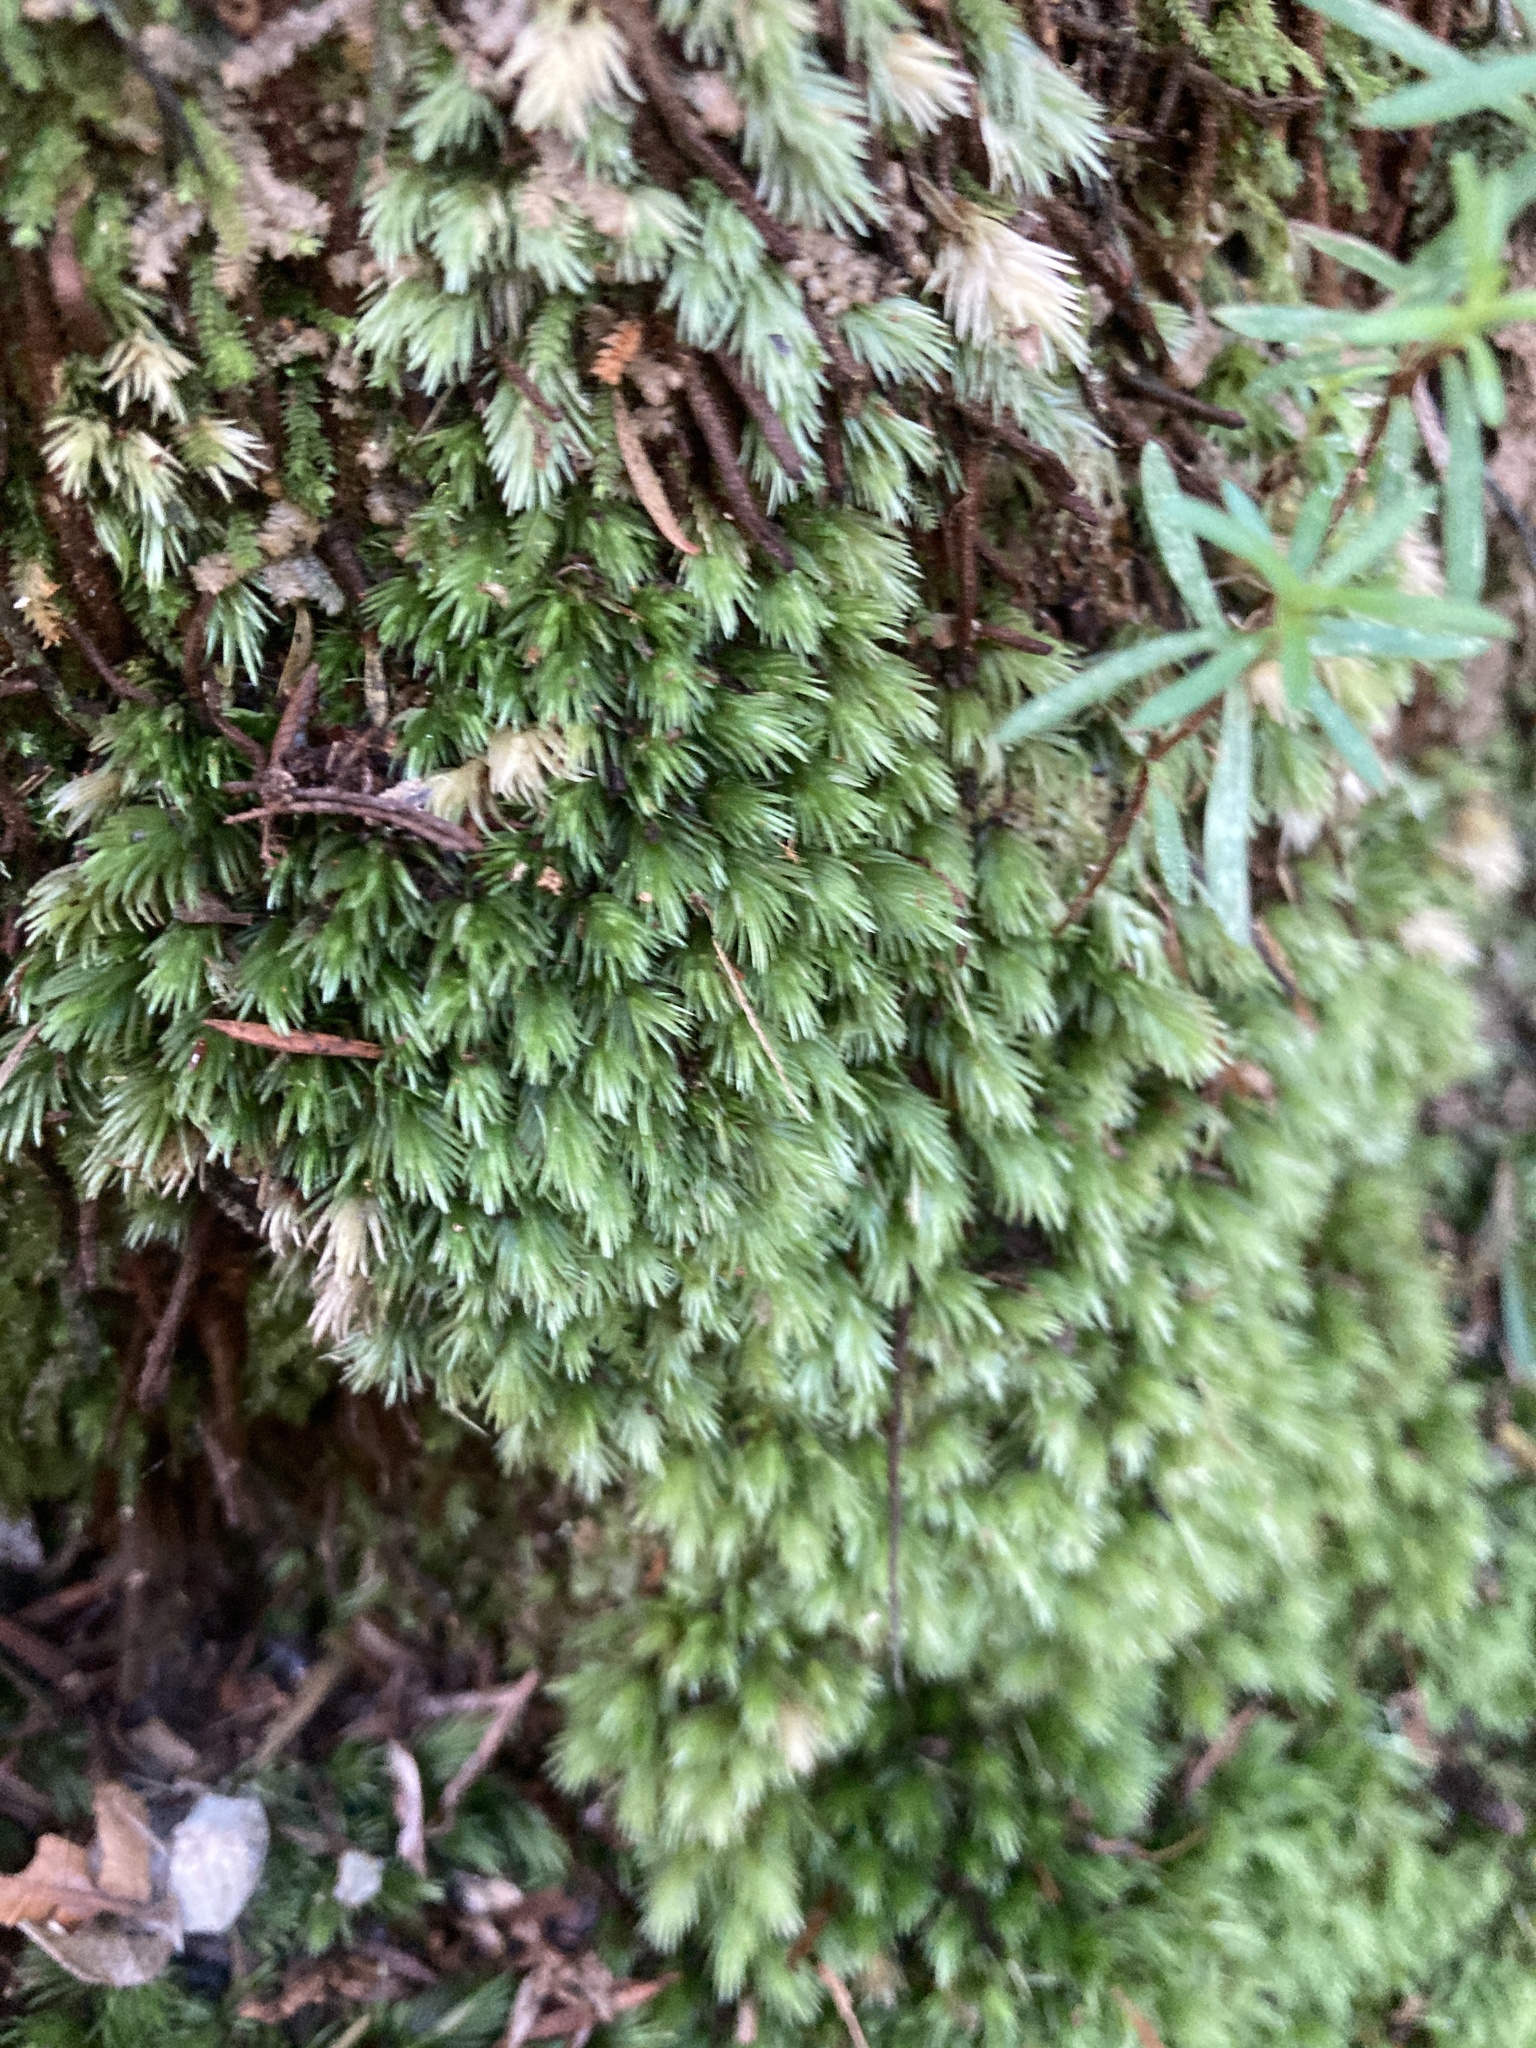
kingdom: Plantae
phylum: Bryophyta
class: Bryopsida
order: Dicranales
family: Leucobryaceae
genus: Leucobryum
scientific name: Leucobryum javense
